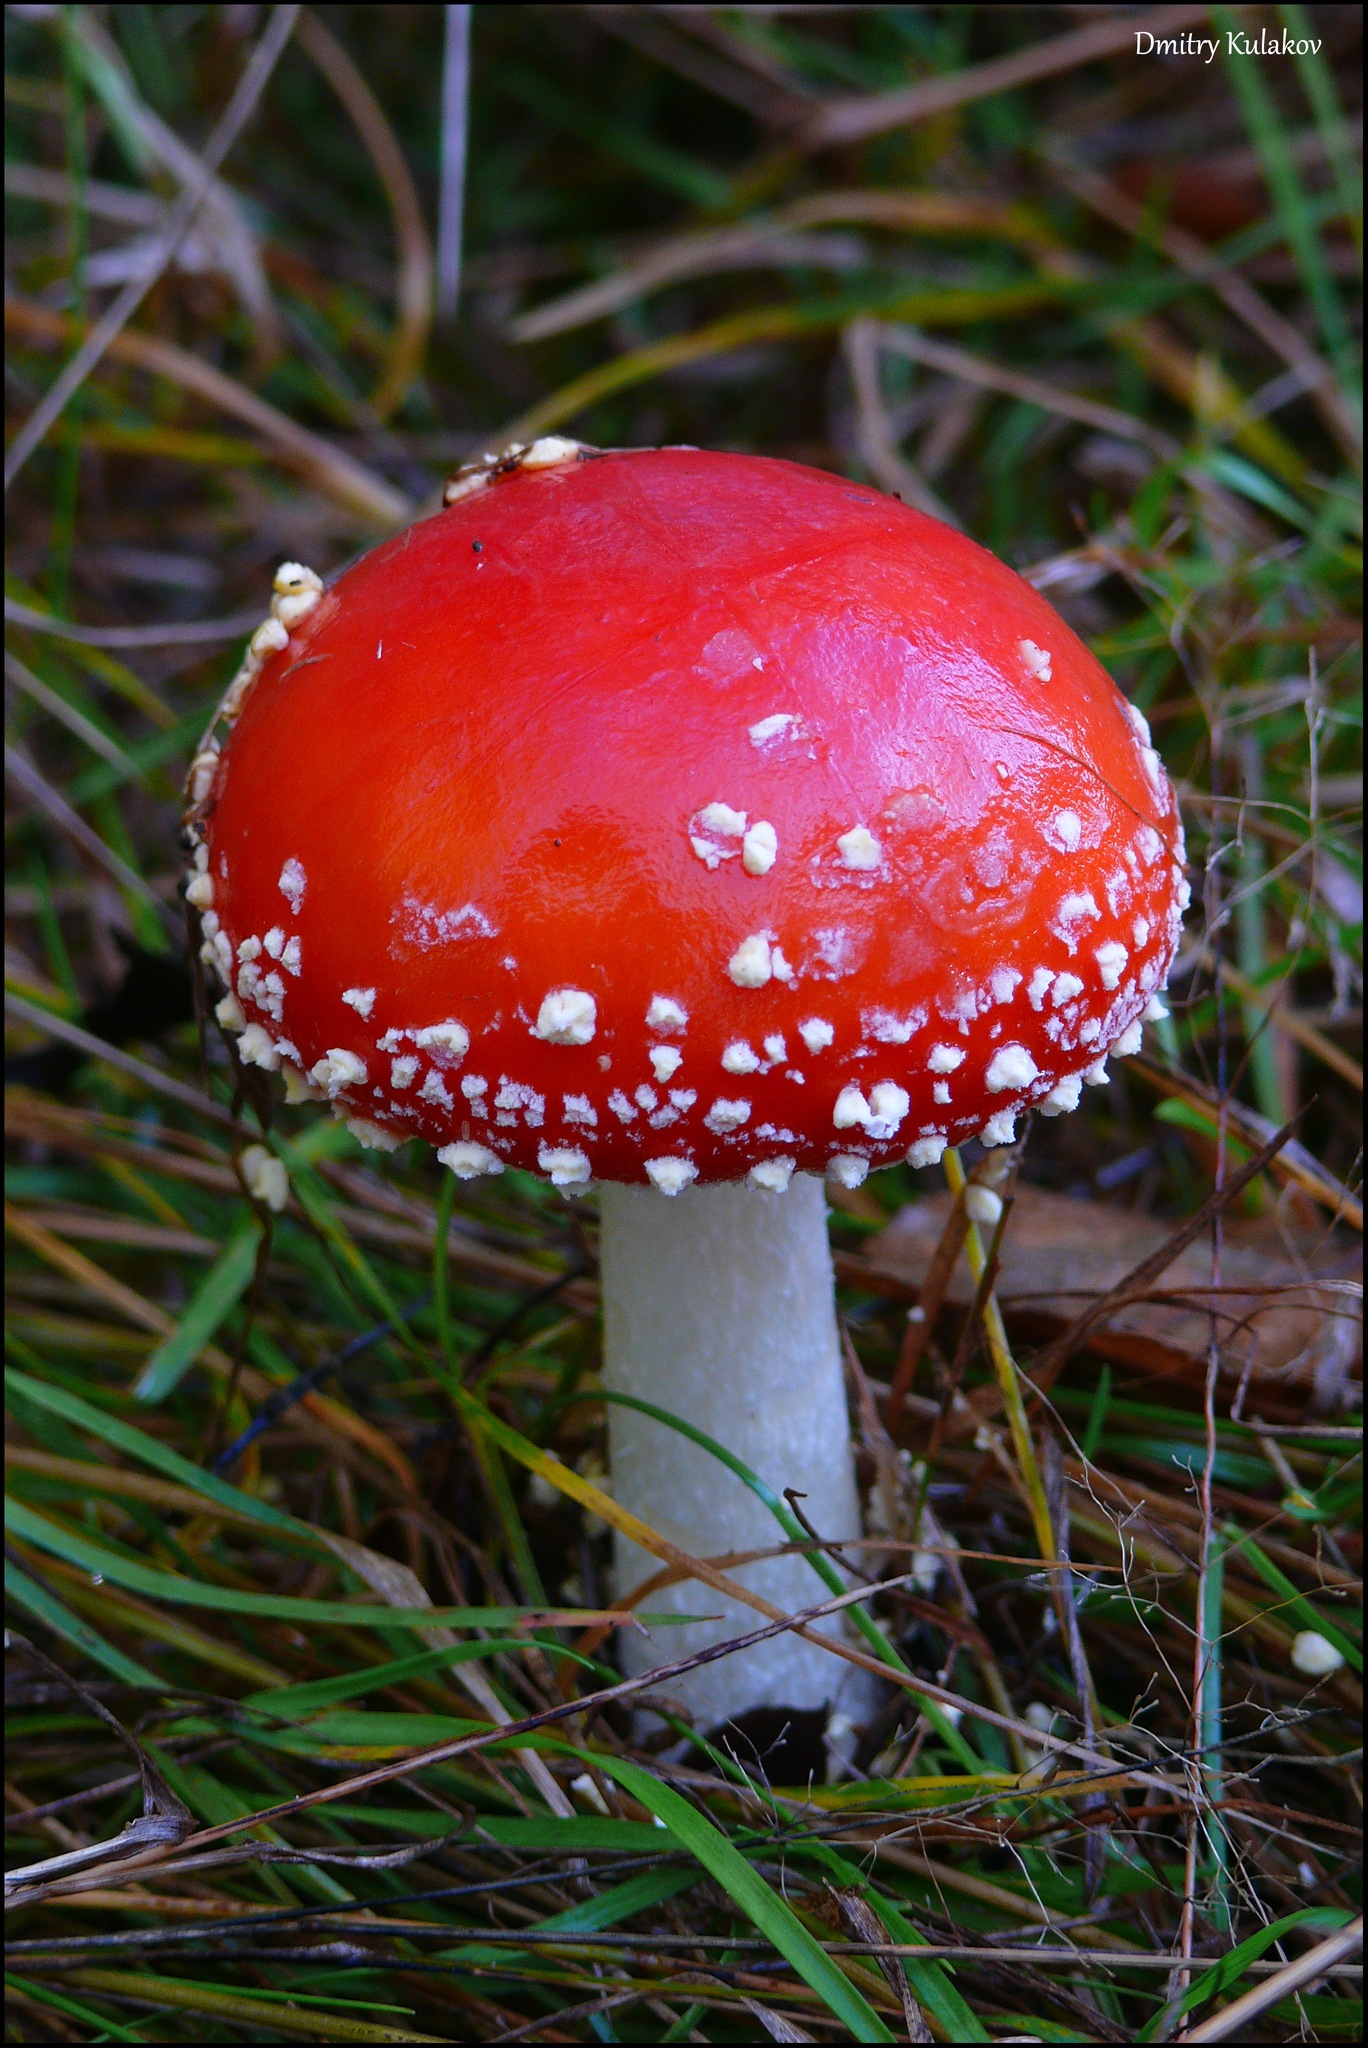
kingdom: Fungi
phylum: Basidiomycota
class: Agaricomycetes
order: Agaricales
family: Amanitaceae
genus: Amanita
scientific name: Amanita muscaria
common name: Fly agaric
